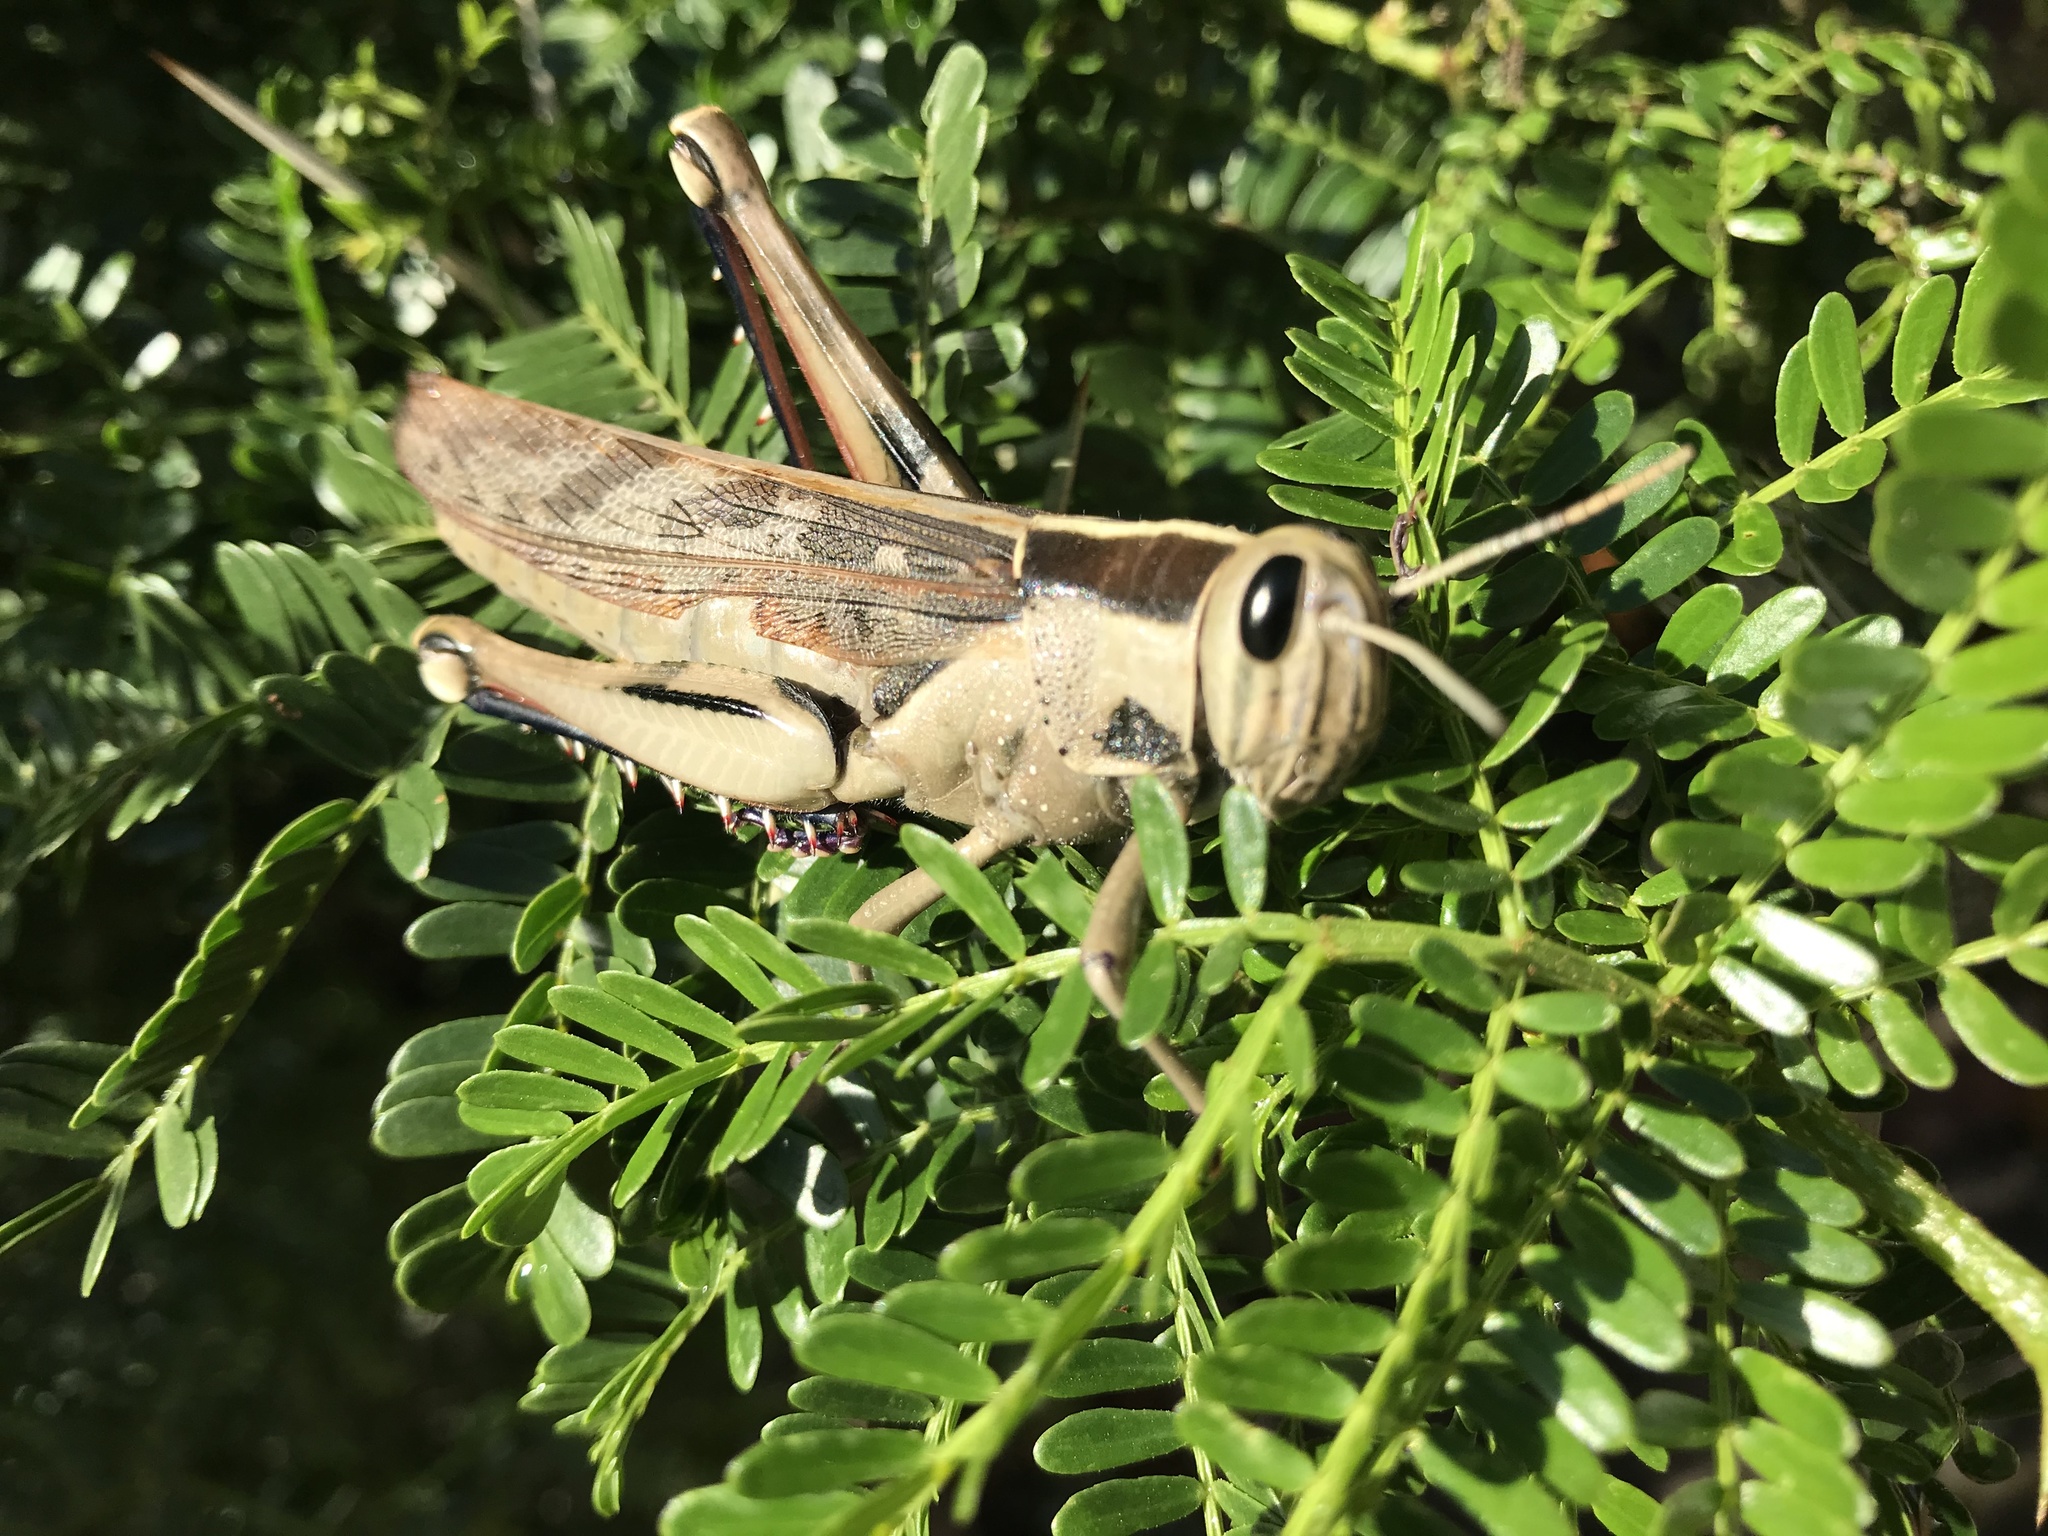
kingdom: Animalia
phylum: Arthropoda
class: Insecta
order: Orthoptera
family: Acrididae
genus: Acanthacris
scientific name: Acanthacris ruficornis
